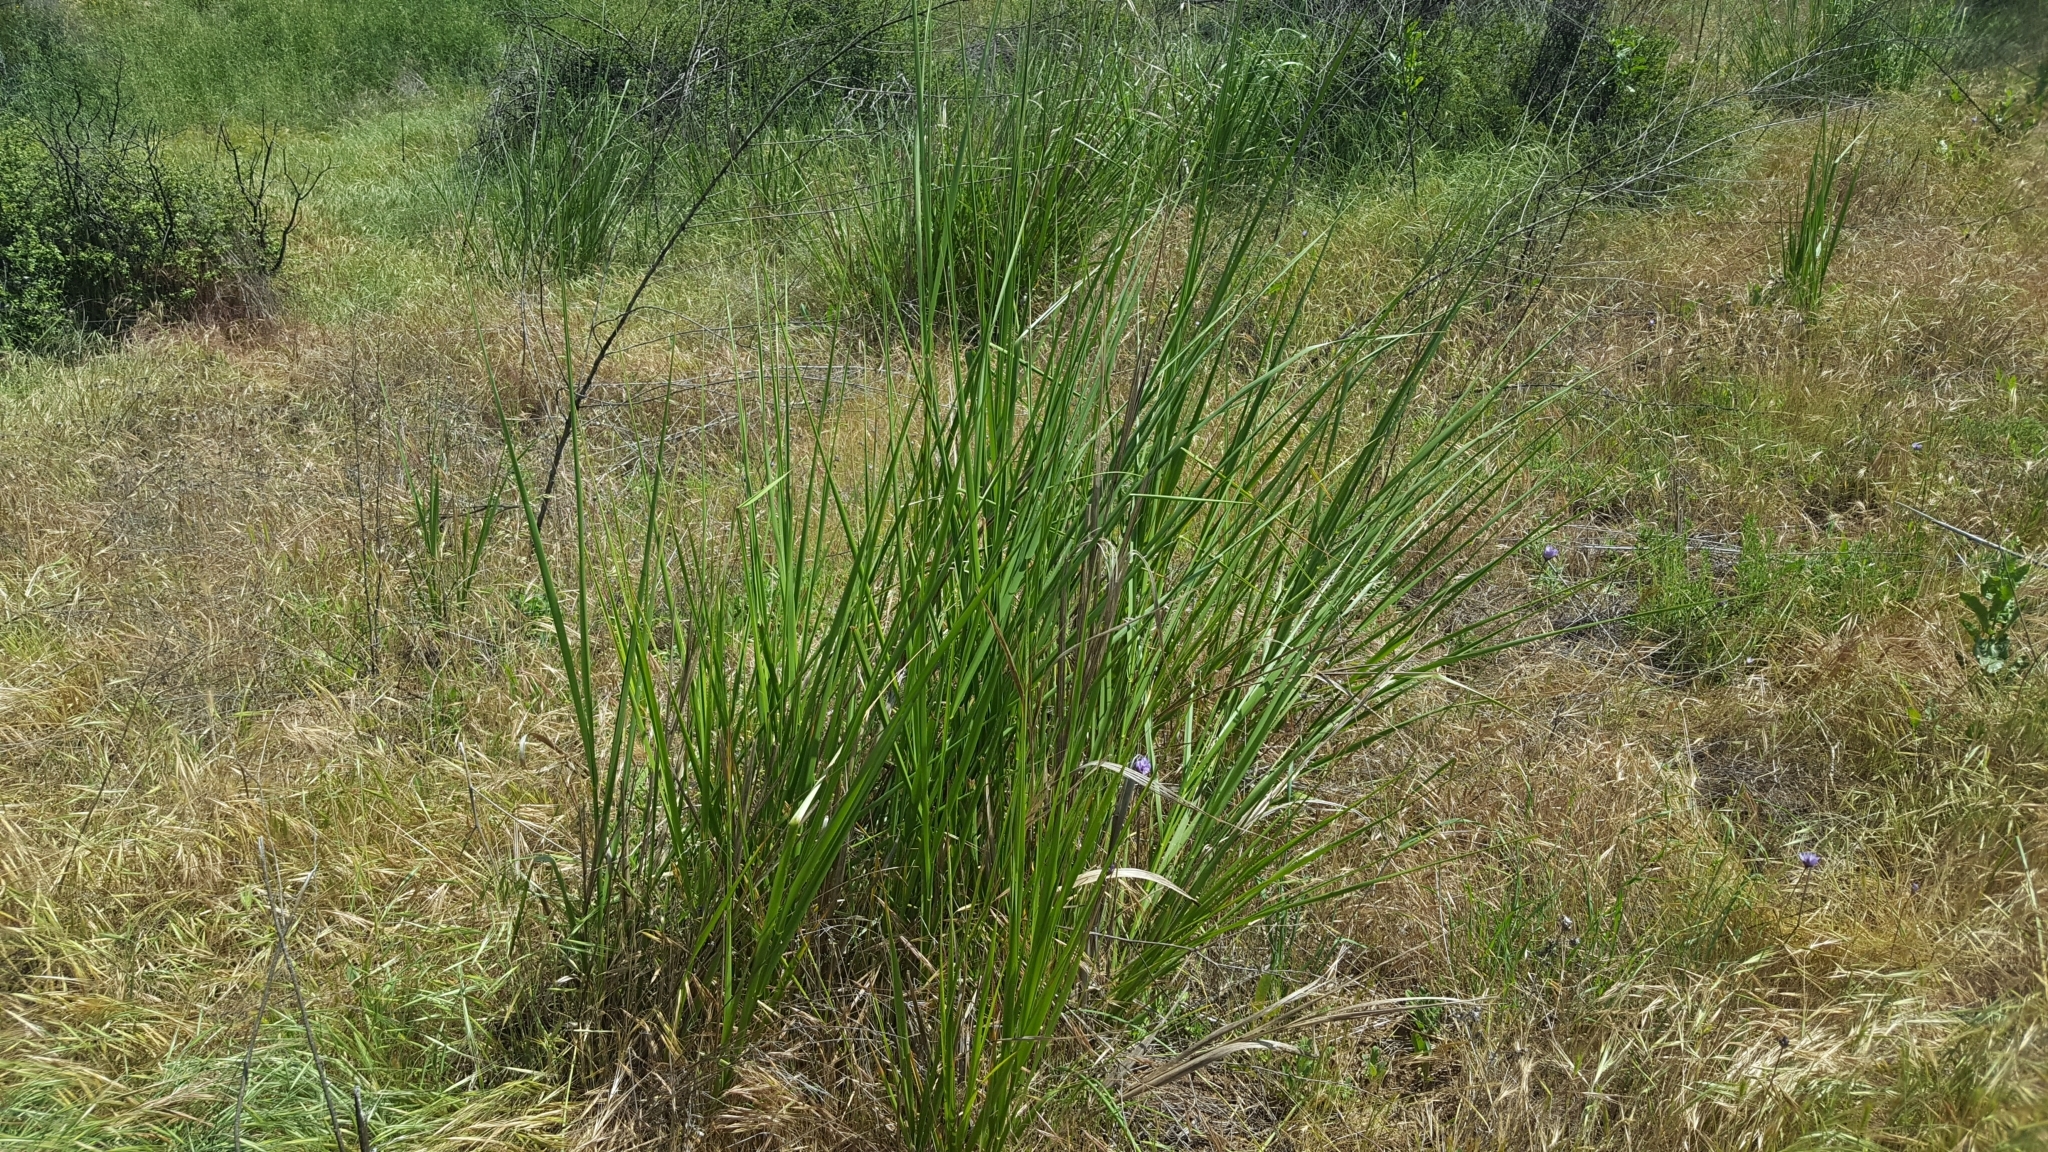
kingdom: Plantae
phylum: Tracheophyta
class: Liliopsida
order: Poales
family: Poaceae
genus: Leymus
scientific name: Leymus condensatus
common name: Giant wild rye
